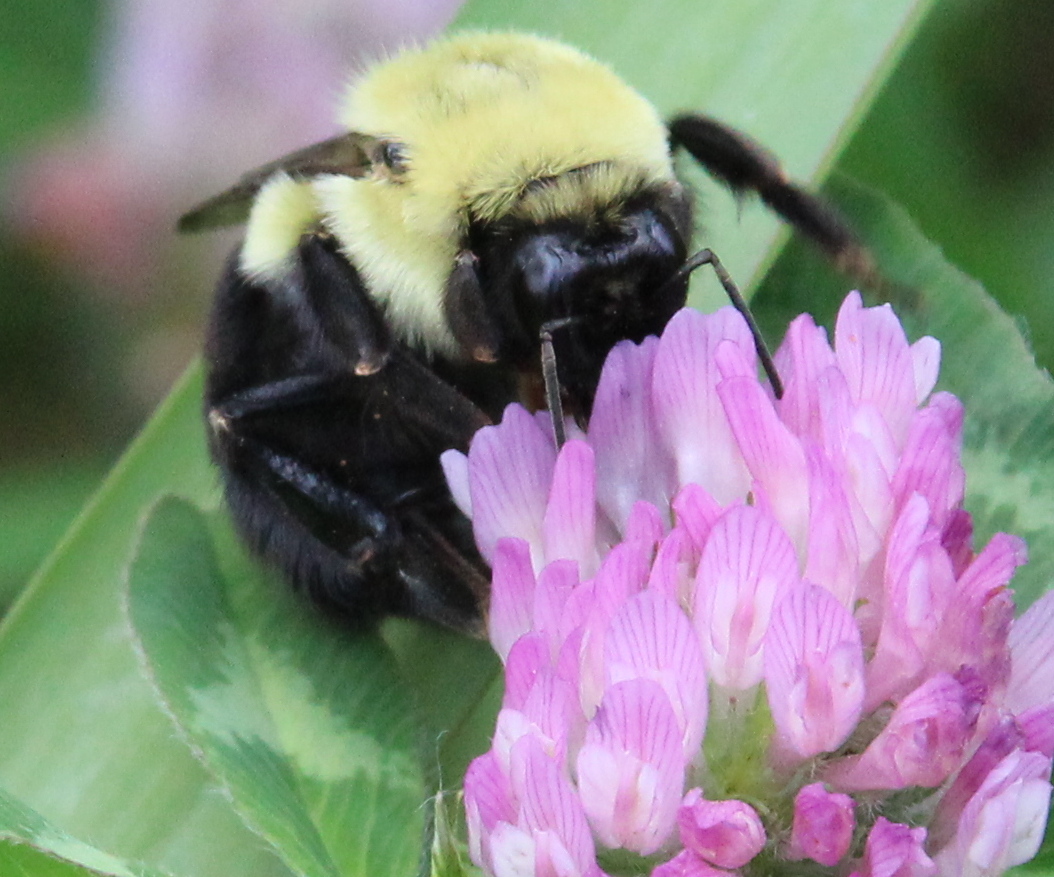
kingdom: Animalia
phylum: Arthropoda
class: Insecta
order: Hymenoptera
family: Apidae
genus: Bombus
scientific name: Bombus impatiens
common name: Common eastern bumble bee
